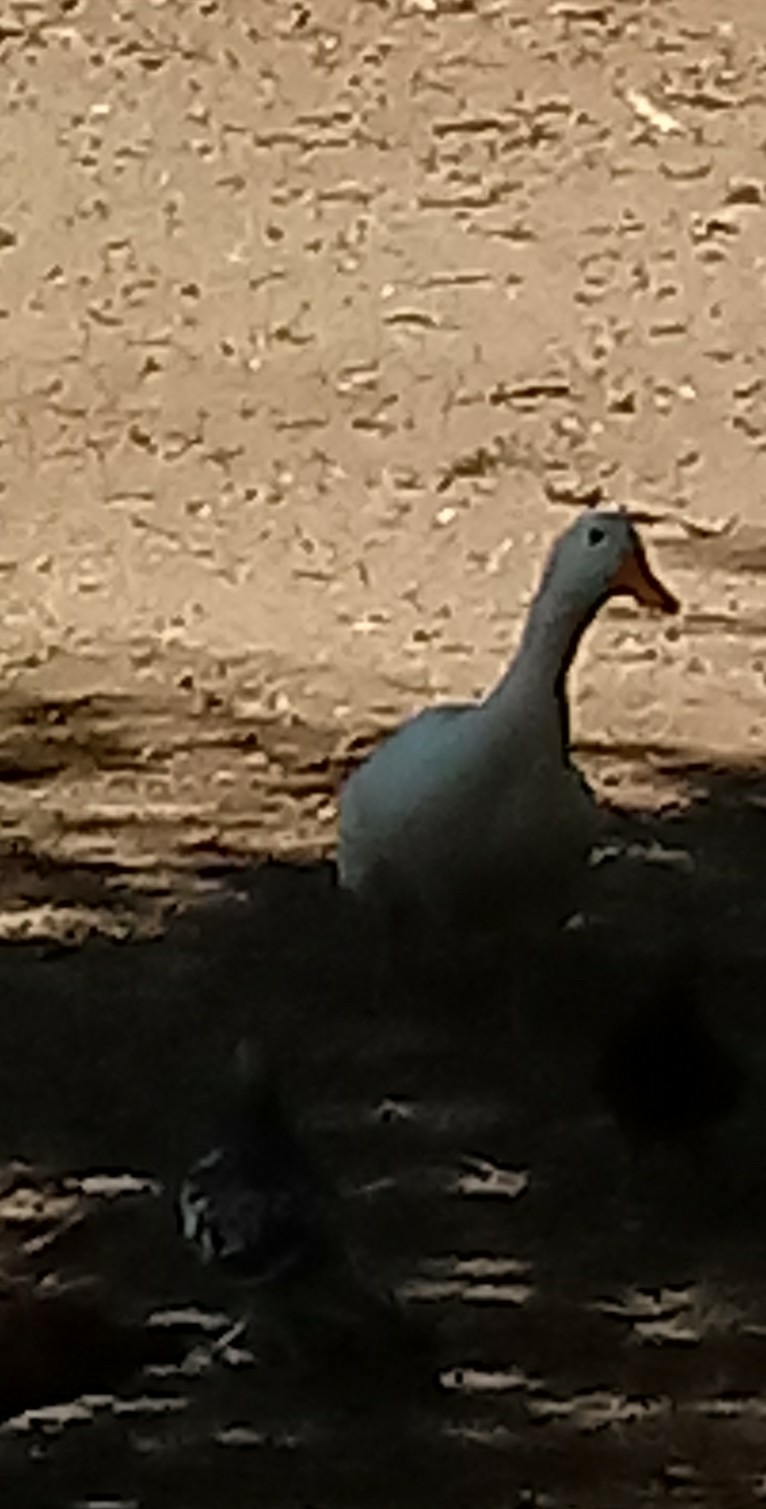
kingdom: Animalia
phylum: Chordata
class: Aves
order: Anseriformes
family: Anatidae
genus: Anas
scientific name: Anas platyrhynchos
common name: Mallard
